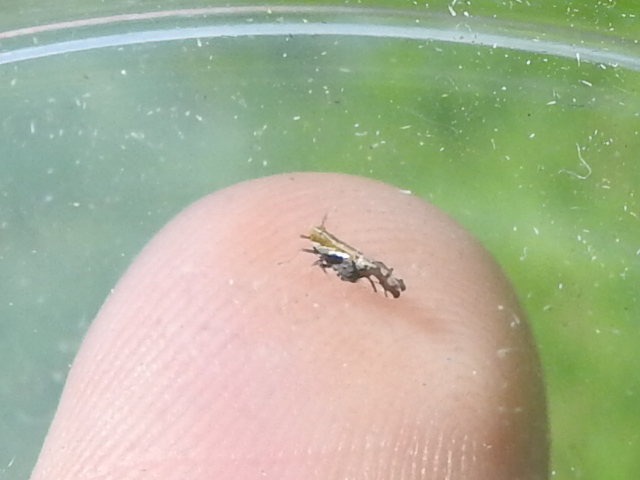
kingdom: Animalia
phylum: Arthropoda
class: Insecta
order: Hemiptera
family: Delphacidae
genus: Liburniella
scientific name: Liburniella ornata
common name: Ornate planthopper
